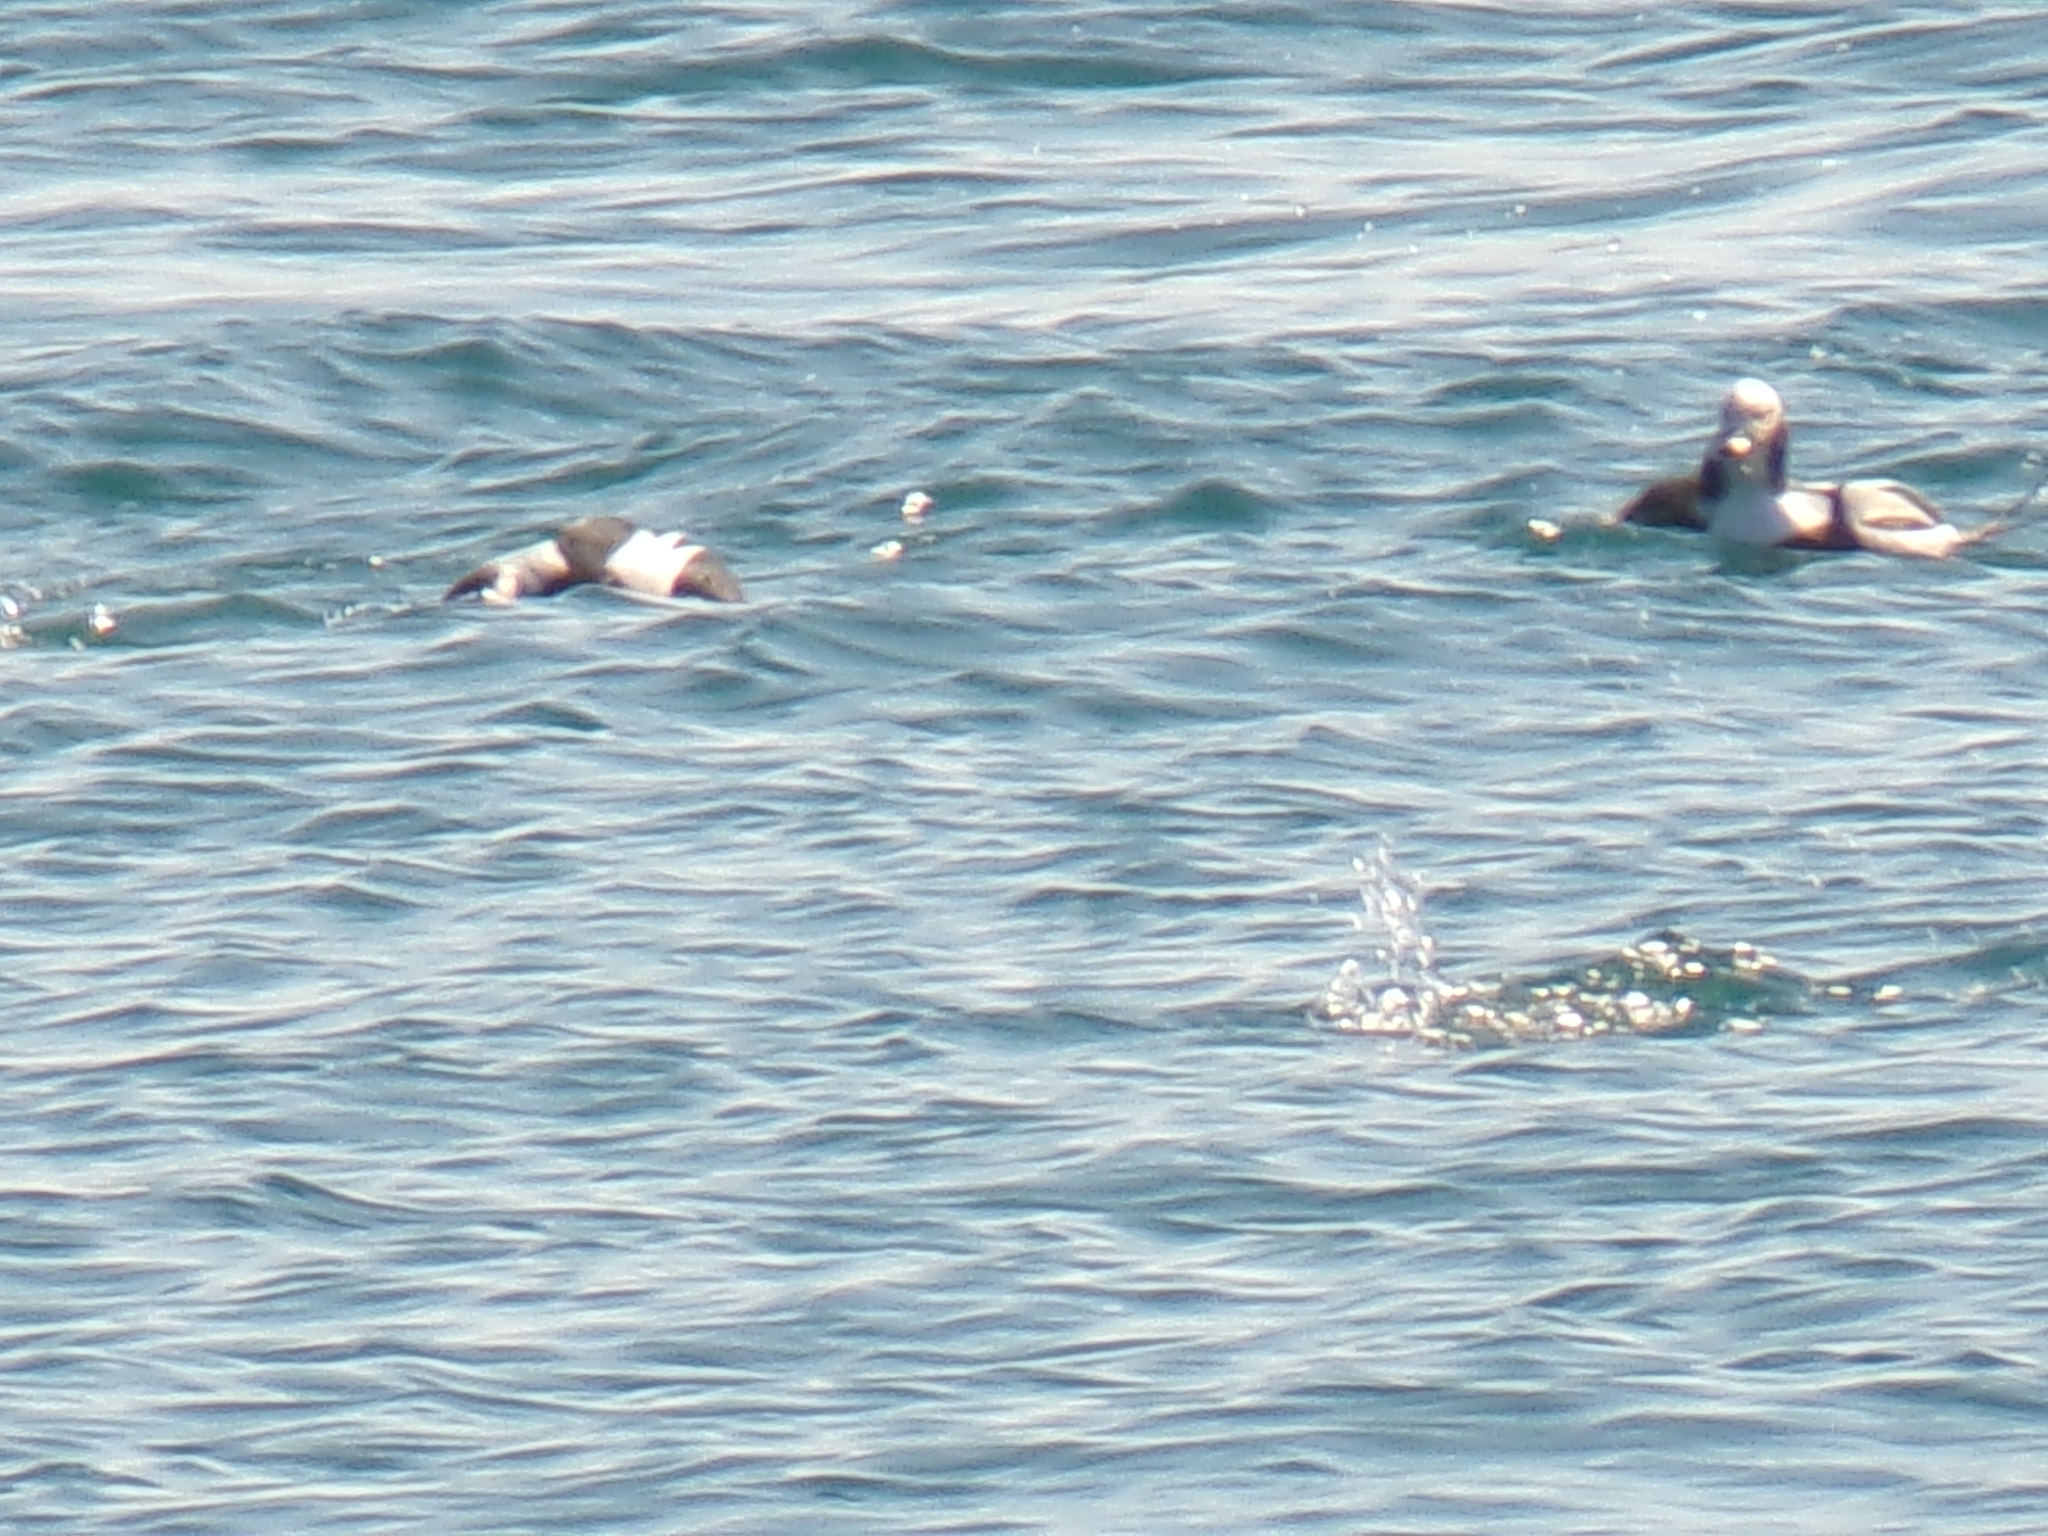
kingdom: Animalia
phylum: Chordata
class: Aves
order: Anseriformes
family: Anatidae
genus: Clangula
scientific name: Clangula hyemalis
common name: Long-tailed duck
